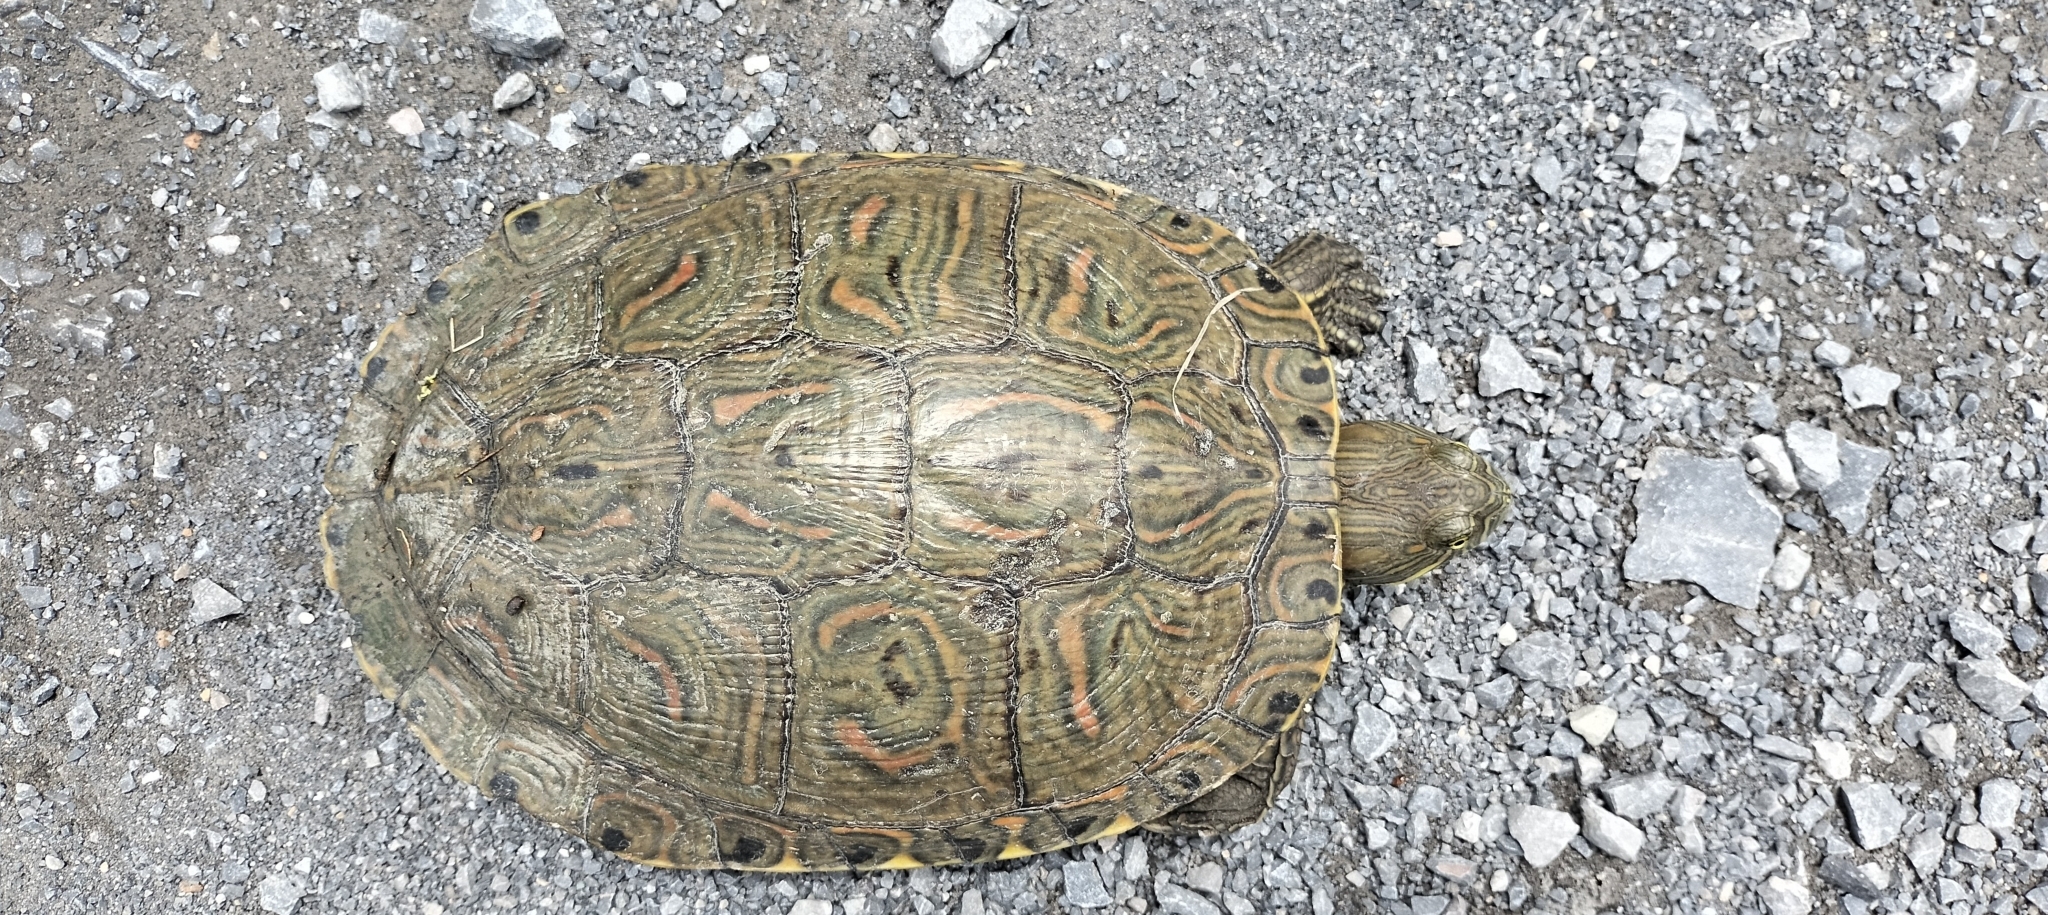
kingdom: Animalia
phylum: Chordata
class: Testudines
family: Emydidae
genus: Trachemys
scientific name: Trachemys venusta
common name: Mesoamerican slider
